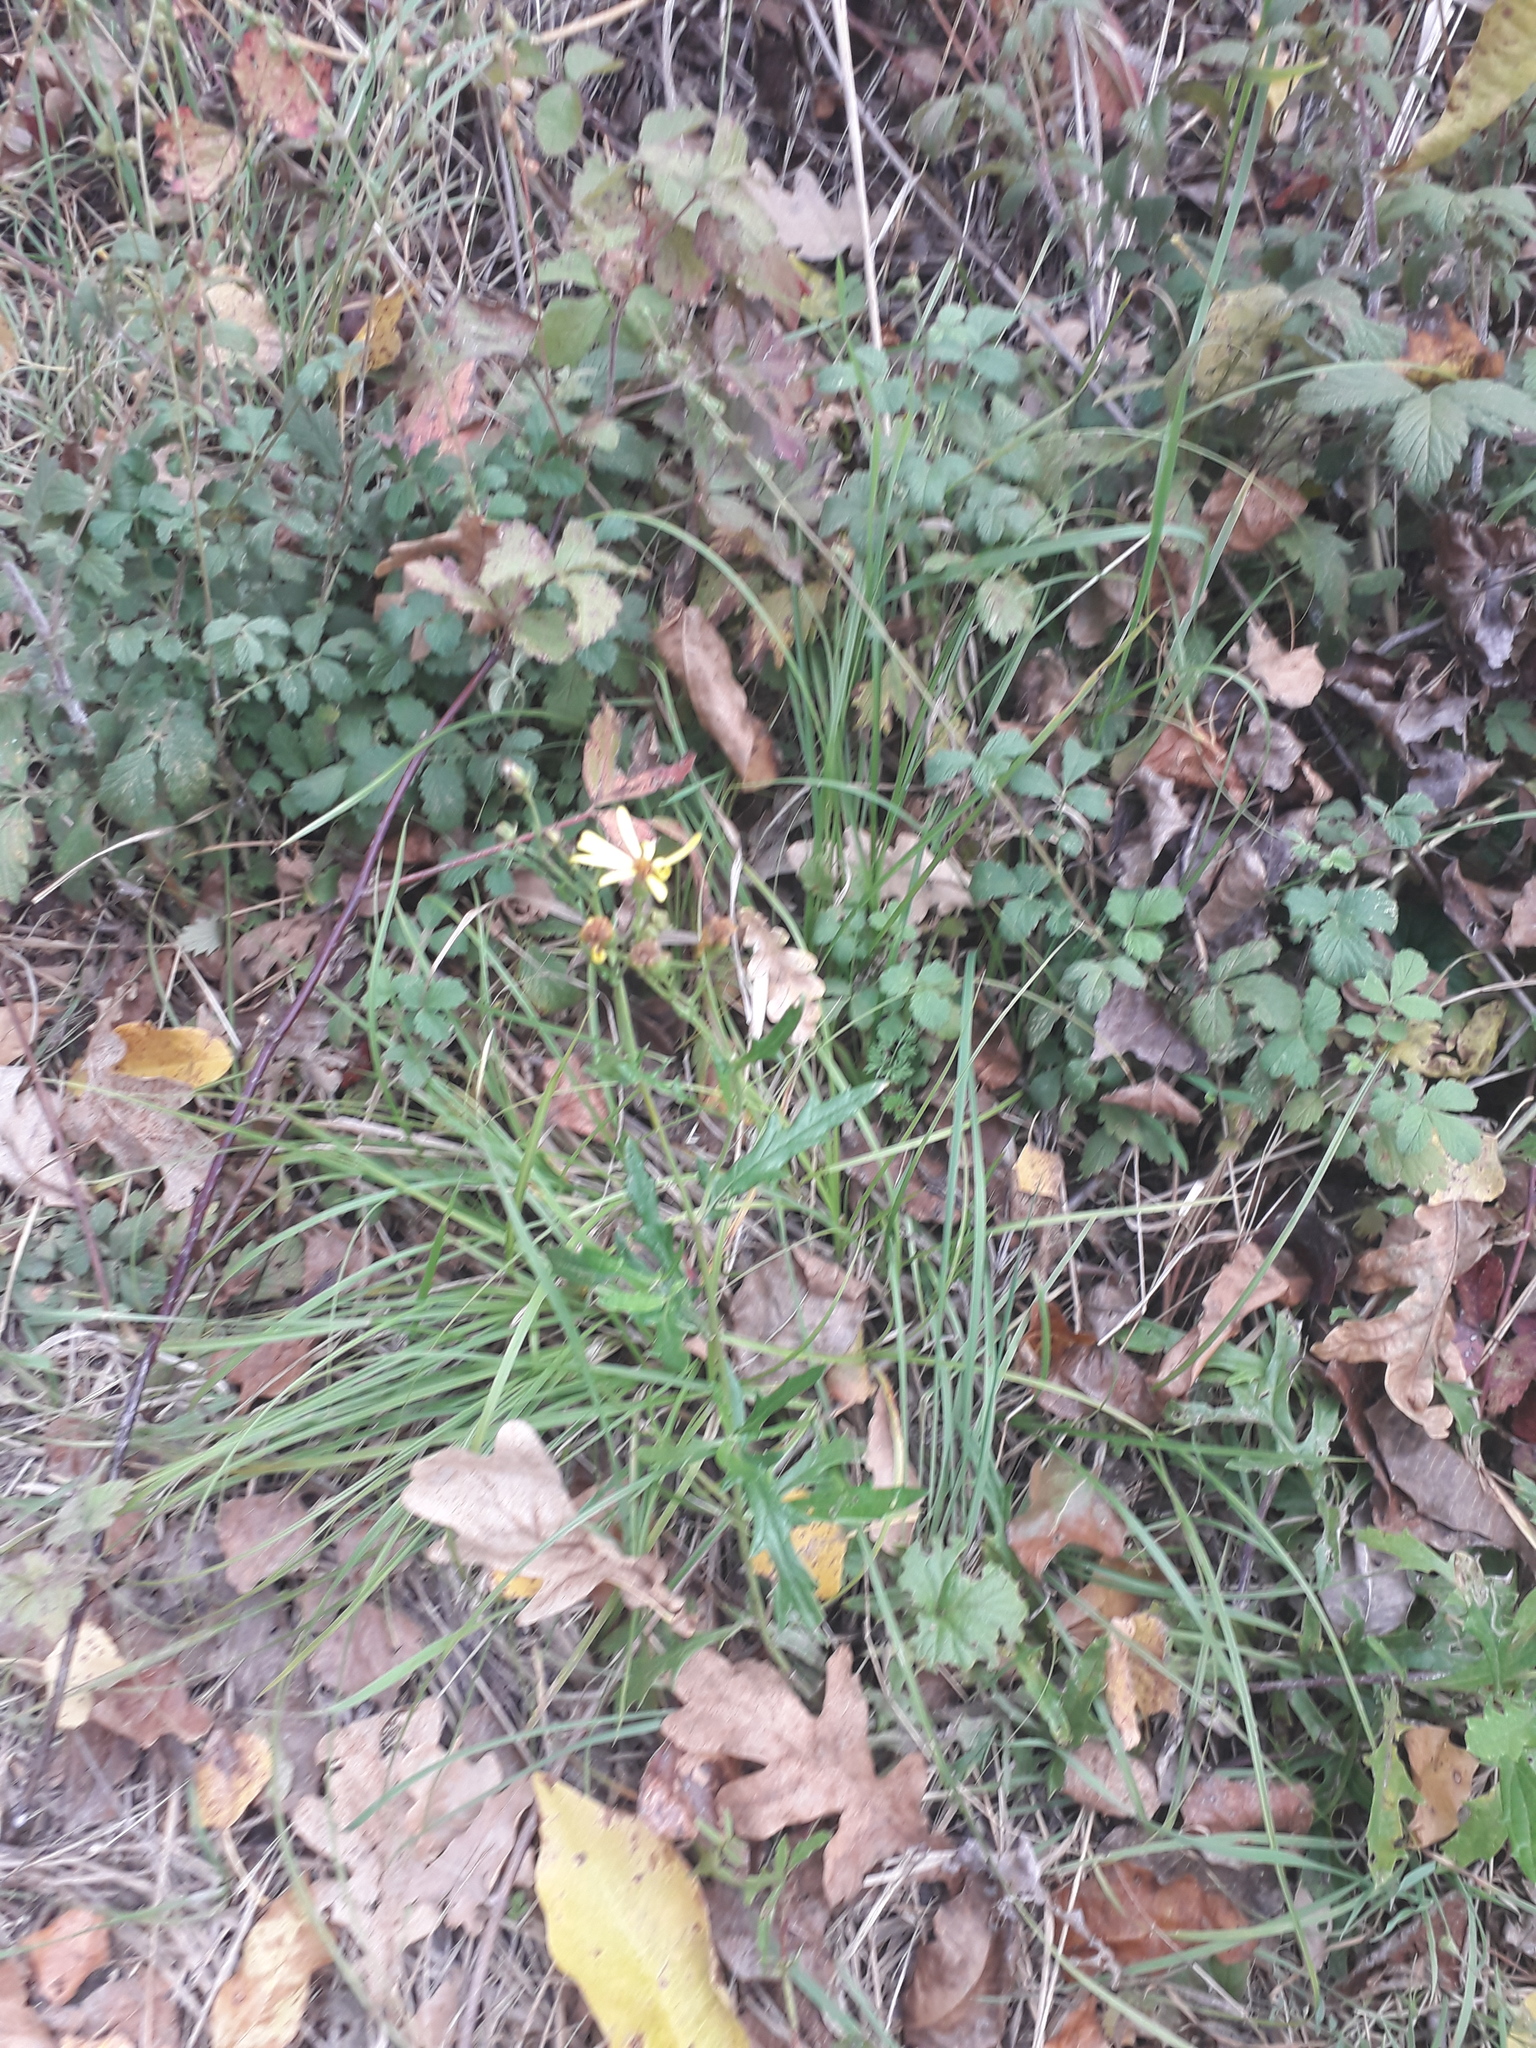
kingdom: Plantae
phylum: Tracheophyta
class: Magnoliopsida
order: Asterales
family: Asteraceae
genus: Jacobaea
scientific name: Jacobaea erucifolia
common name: Hoary ragwort
